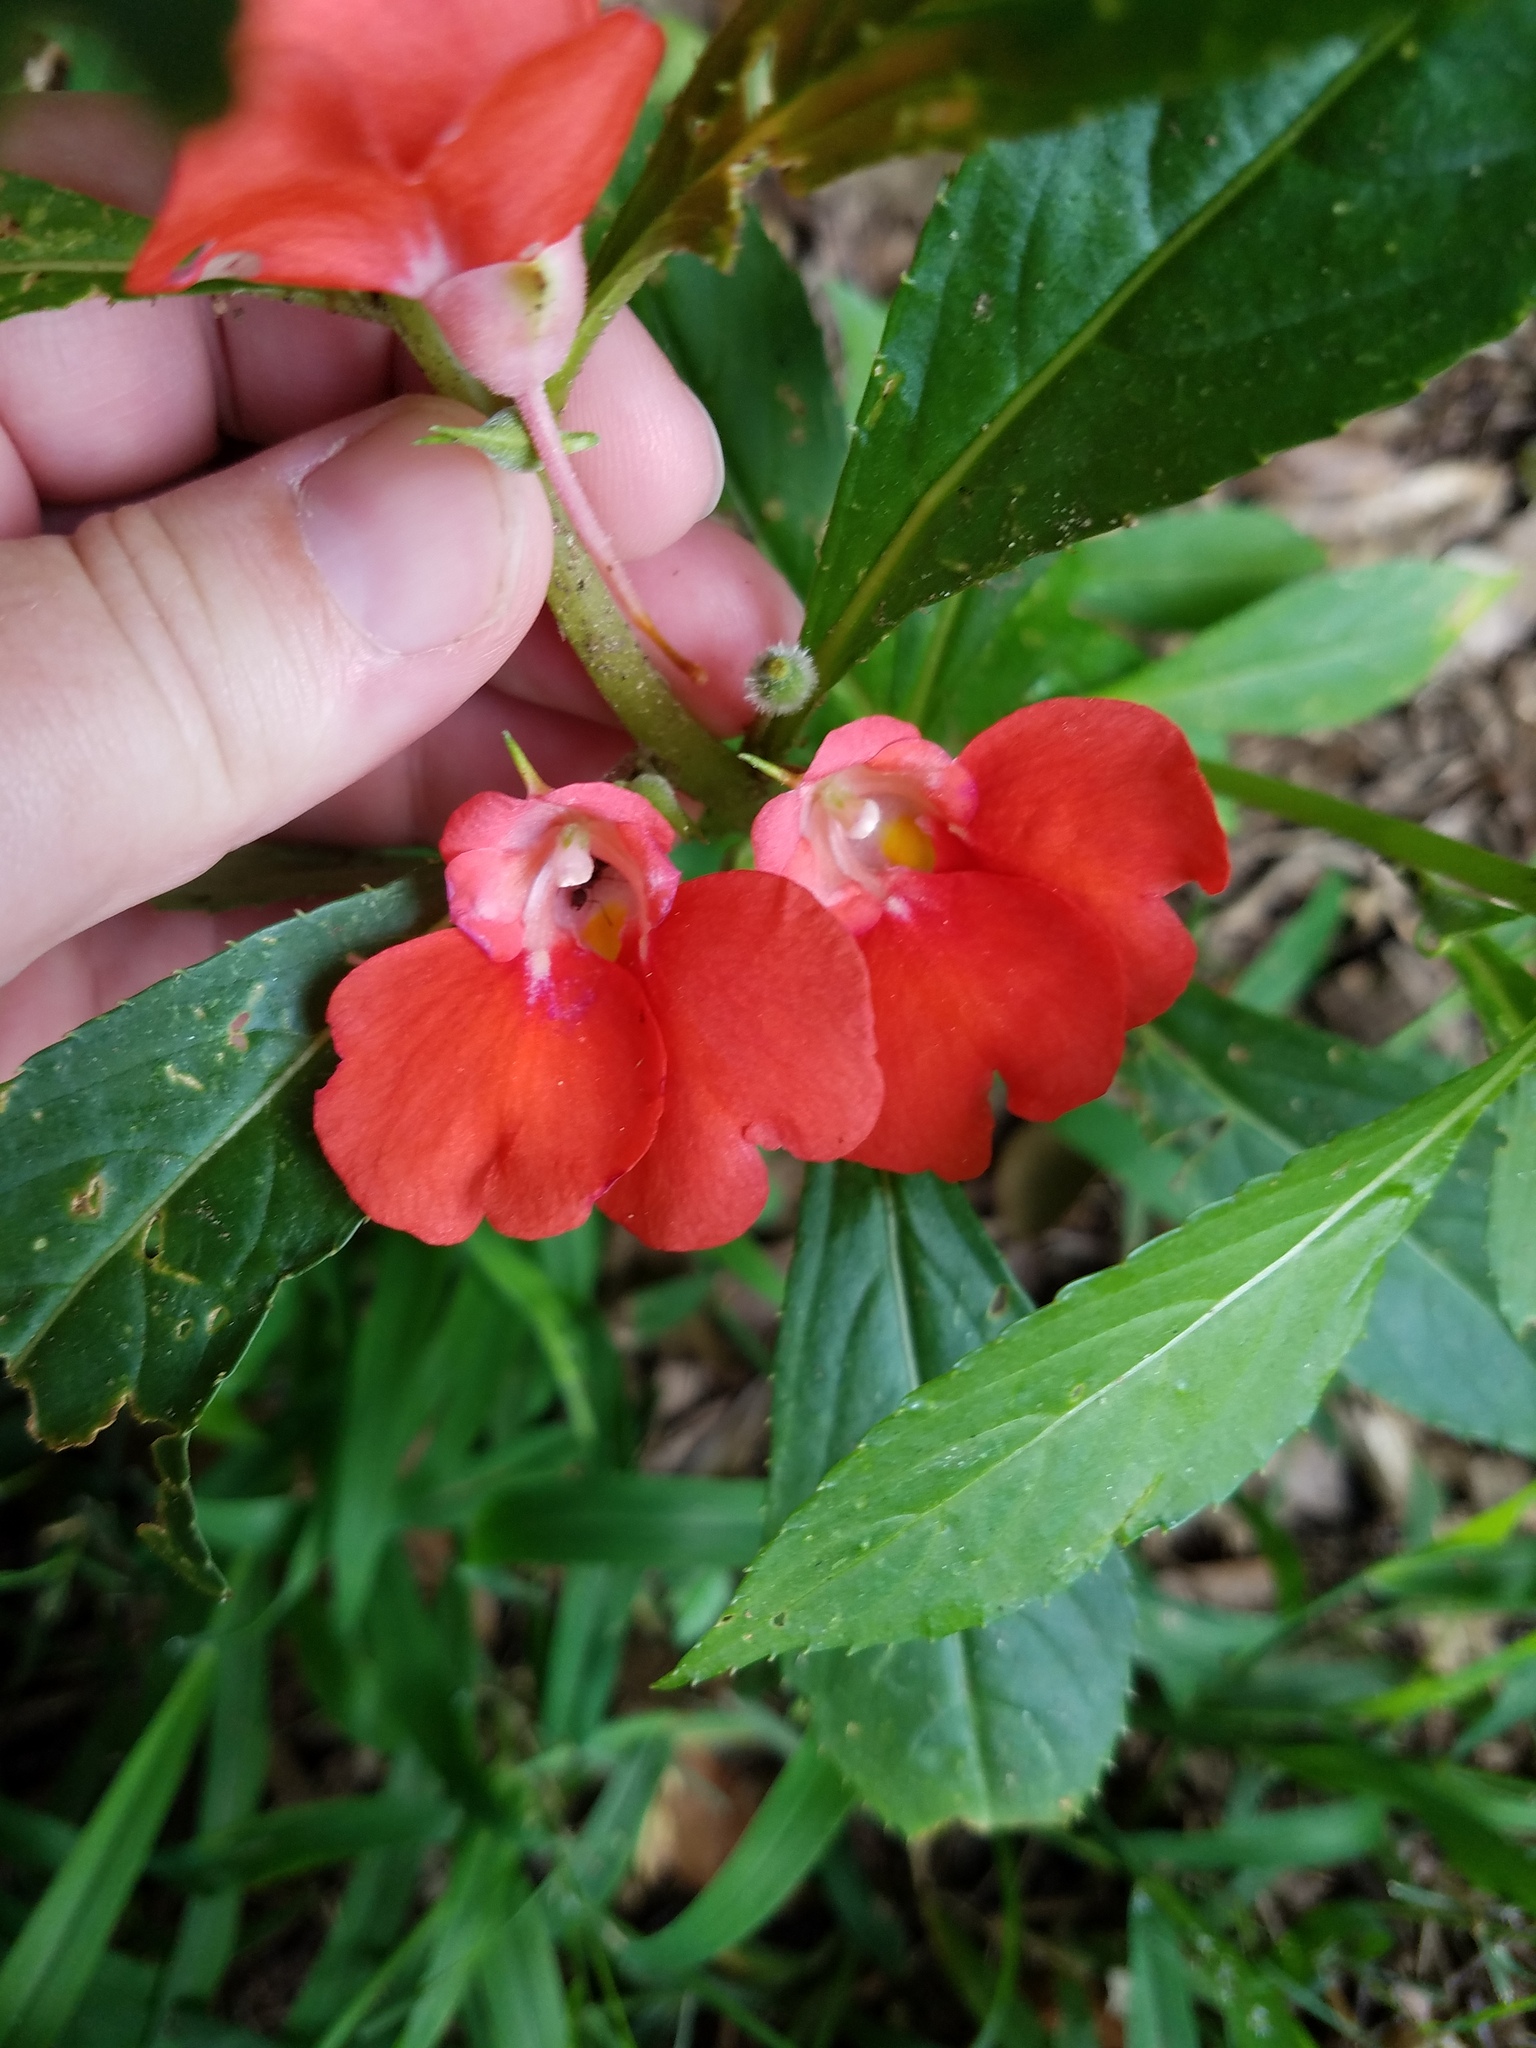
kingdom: Plantae
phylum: Tracheophyta
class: Magnoliopsida
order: Ericales
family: Balsaminaceae
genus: Impatiens
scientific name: Impatiens balsamina
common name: Balsam
